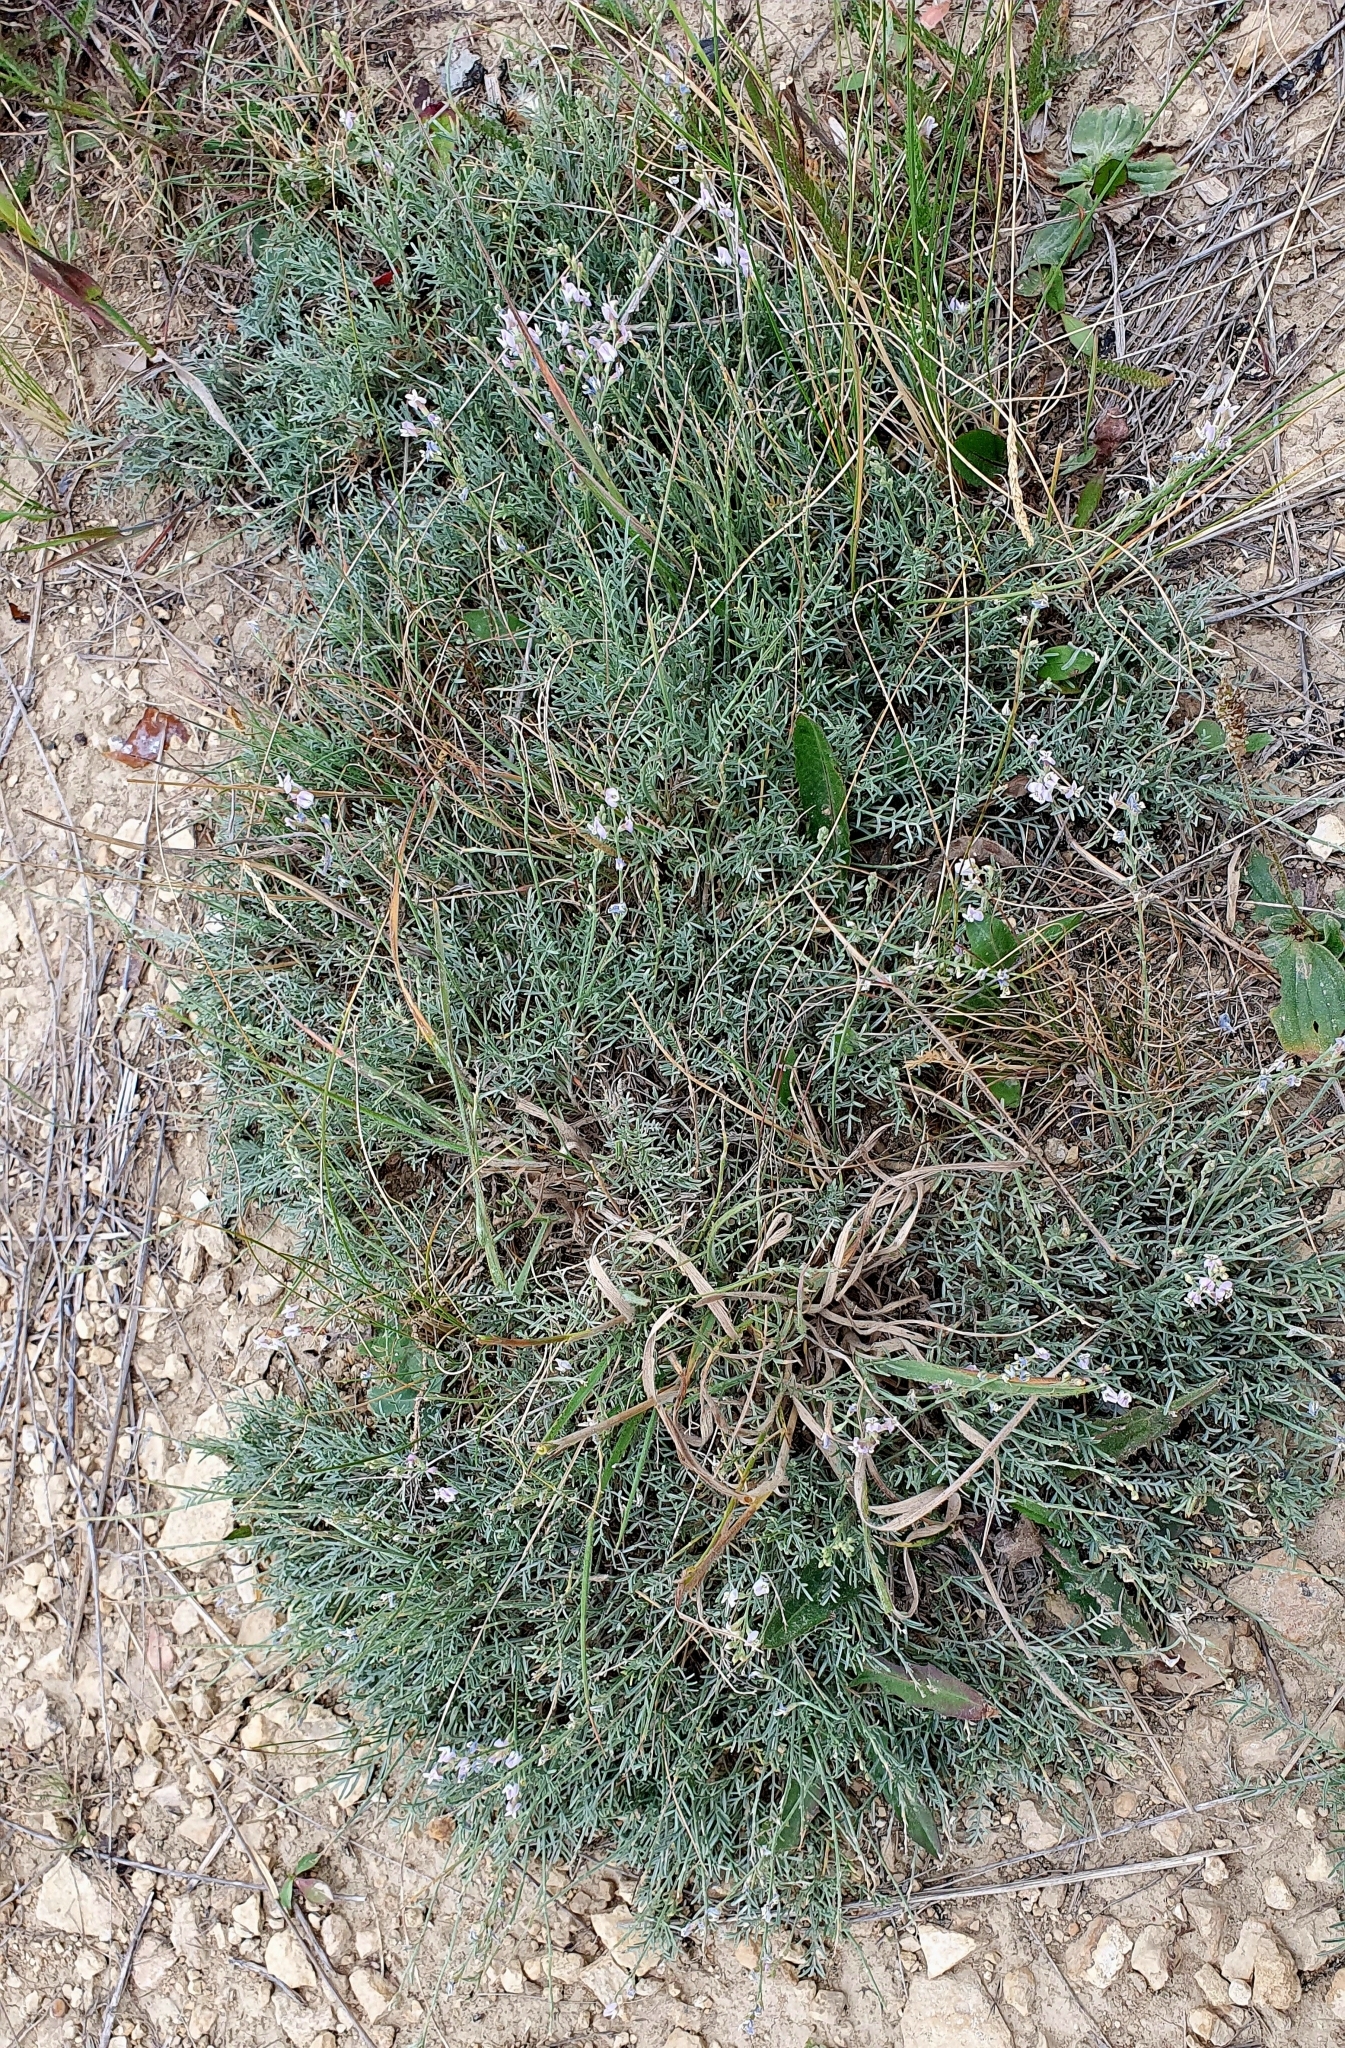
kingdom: Plantae
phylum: Tracheophyta
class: Magnoliopsida
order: Fabales
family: Fabaceae
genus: Astragalus
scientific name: Astragalus
